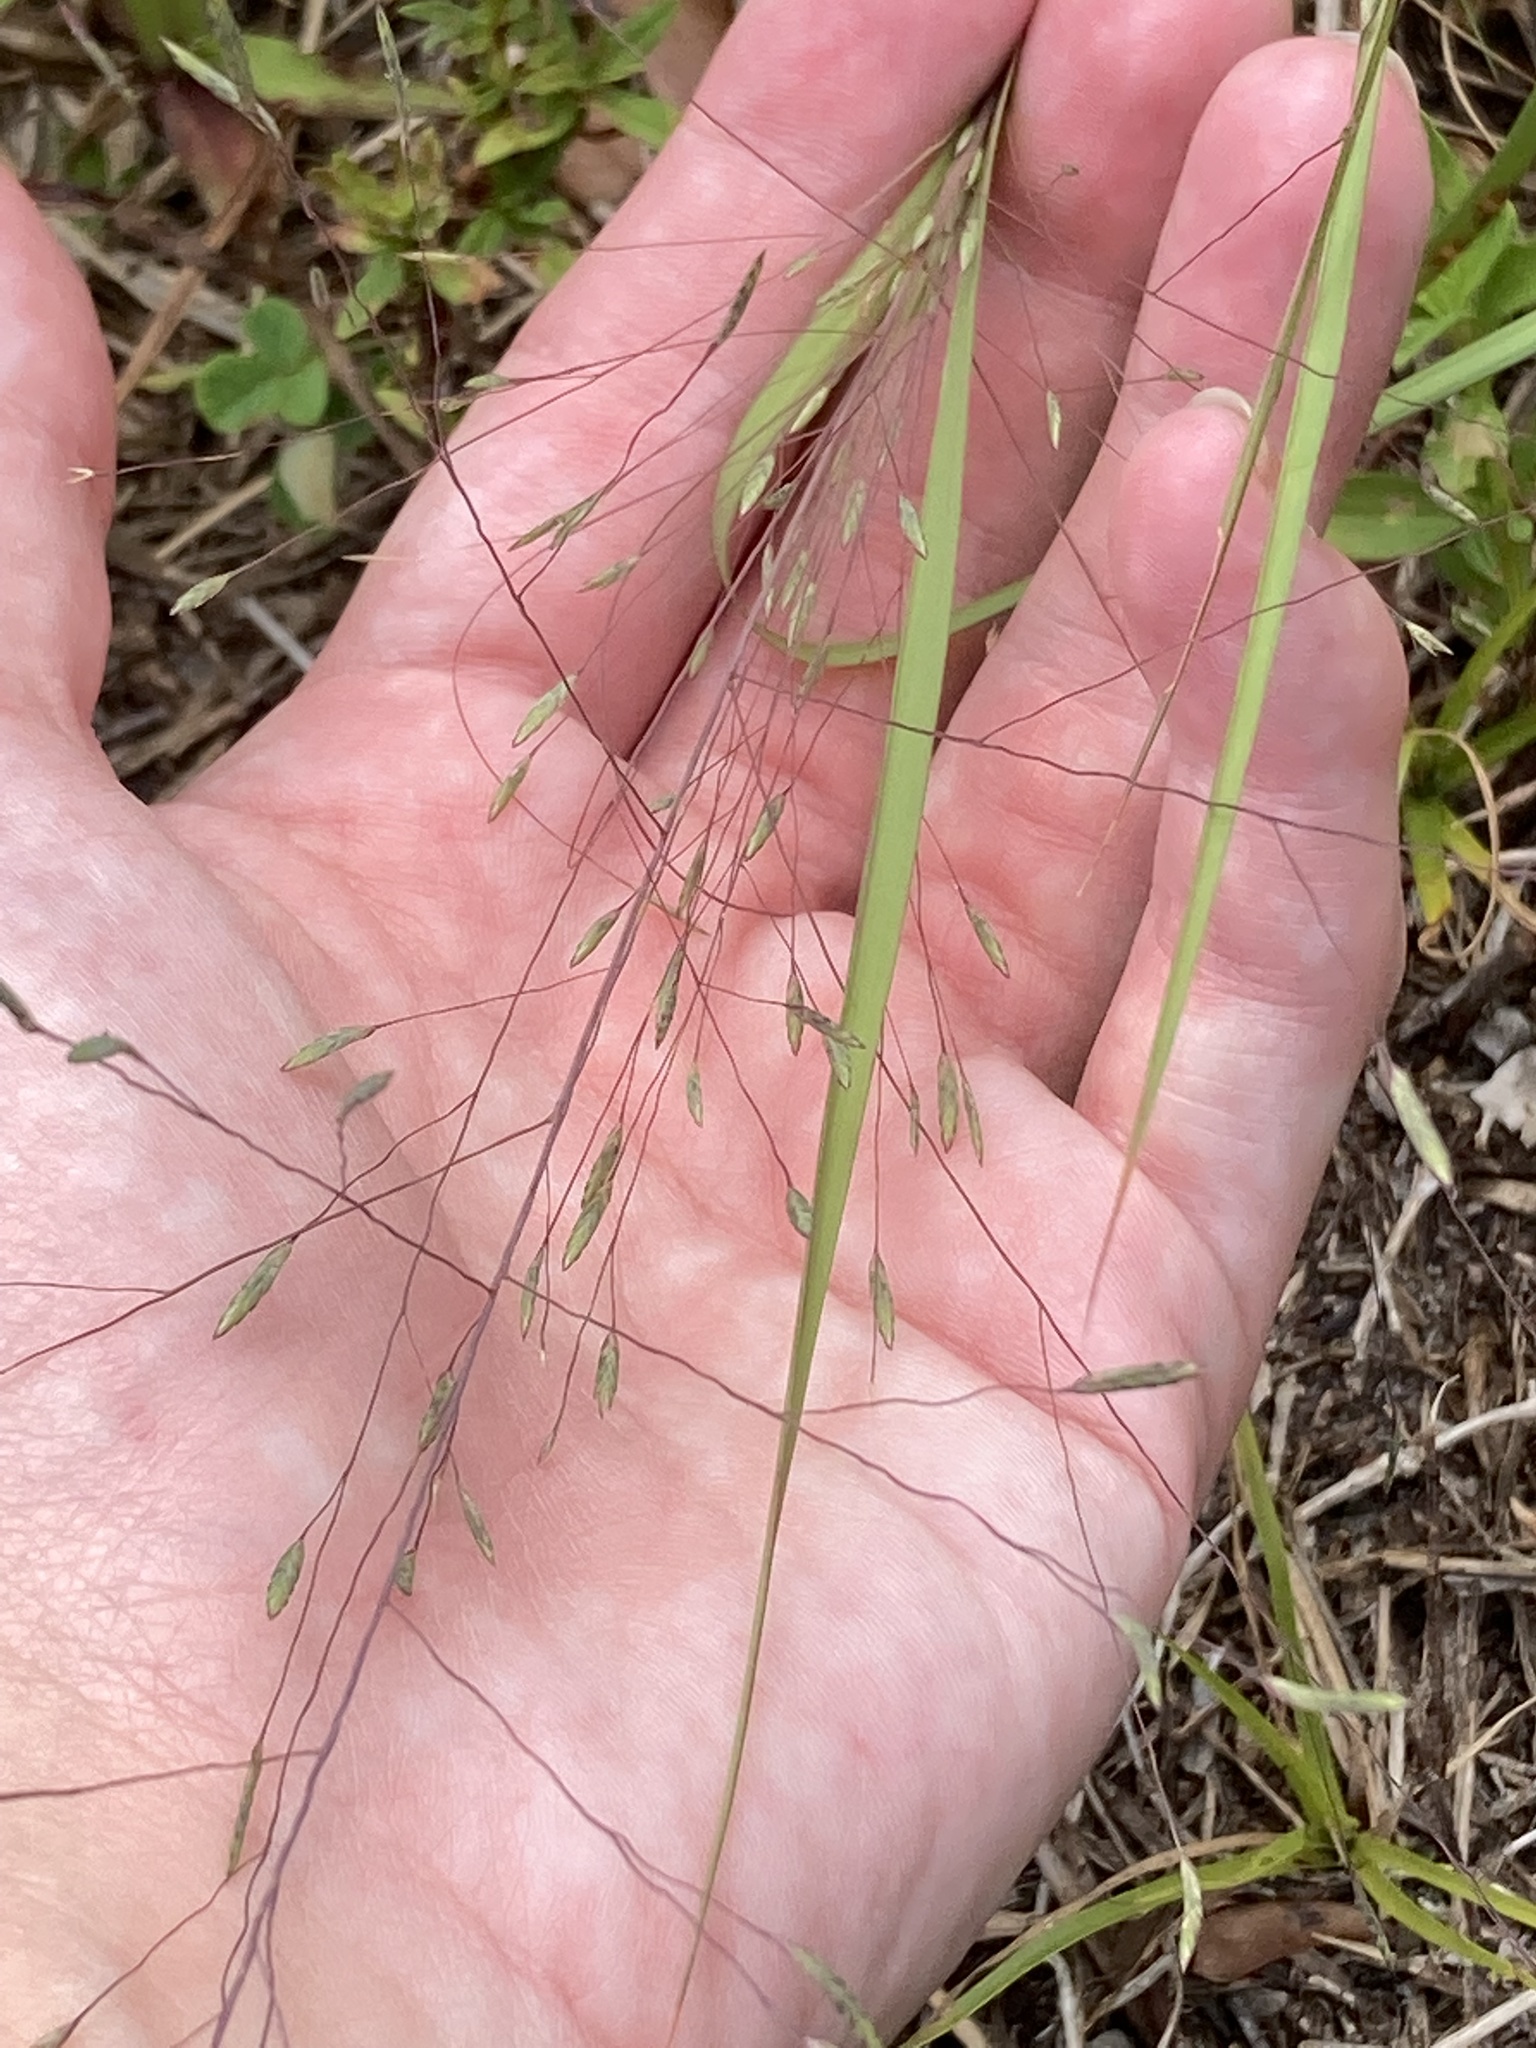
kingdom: Plantae
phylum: Tracheophyta
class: Liliopsida
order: Poales
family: Poaceae
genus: Eragrostis
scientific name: Eragrostis elliottii
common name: Elliott's love grass
